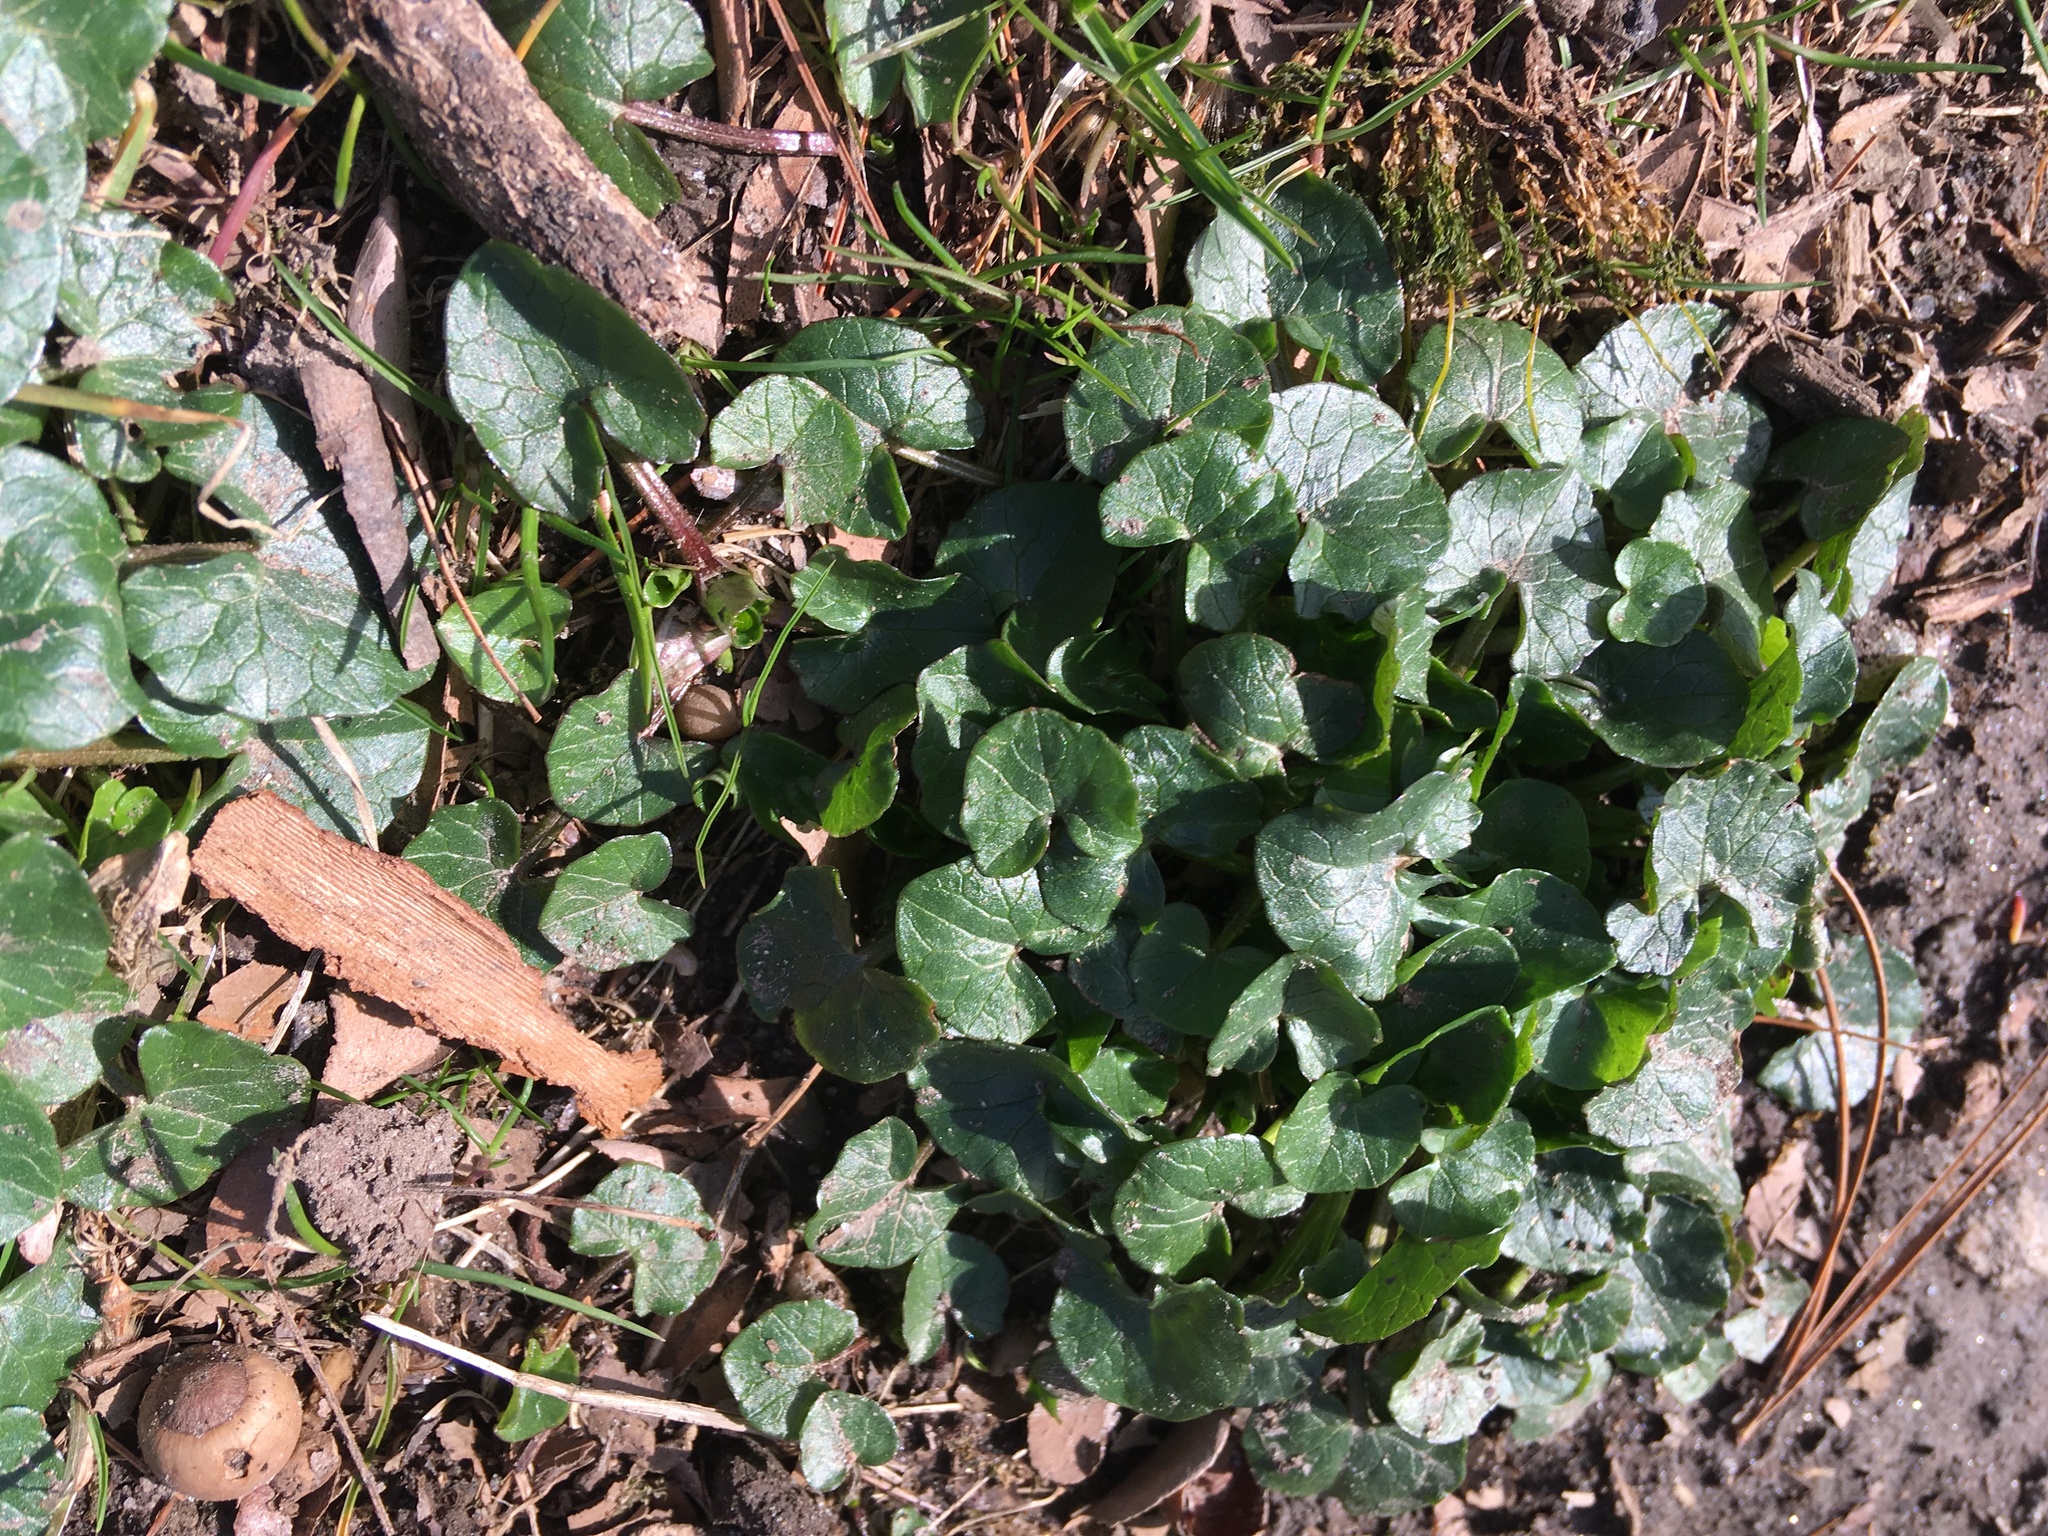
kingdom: Plantae
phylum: Tracheophyta
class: Magnoliopsida
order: Ranunculales
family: Ranunculaceae
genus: Ficaria
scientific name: Ficaria verna
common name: Lesser celandine
